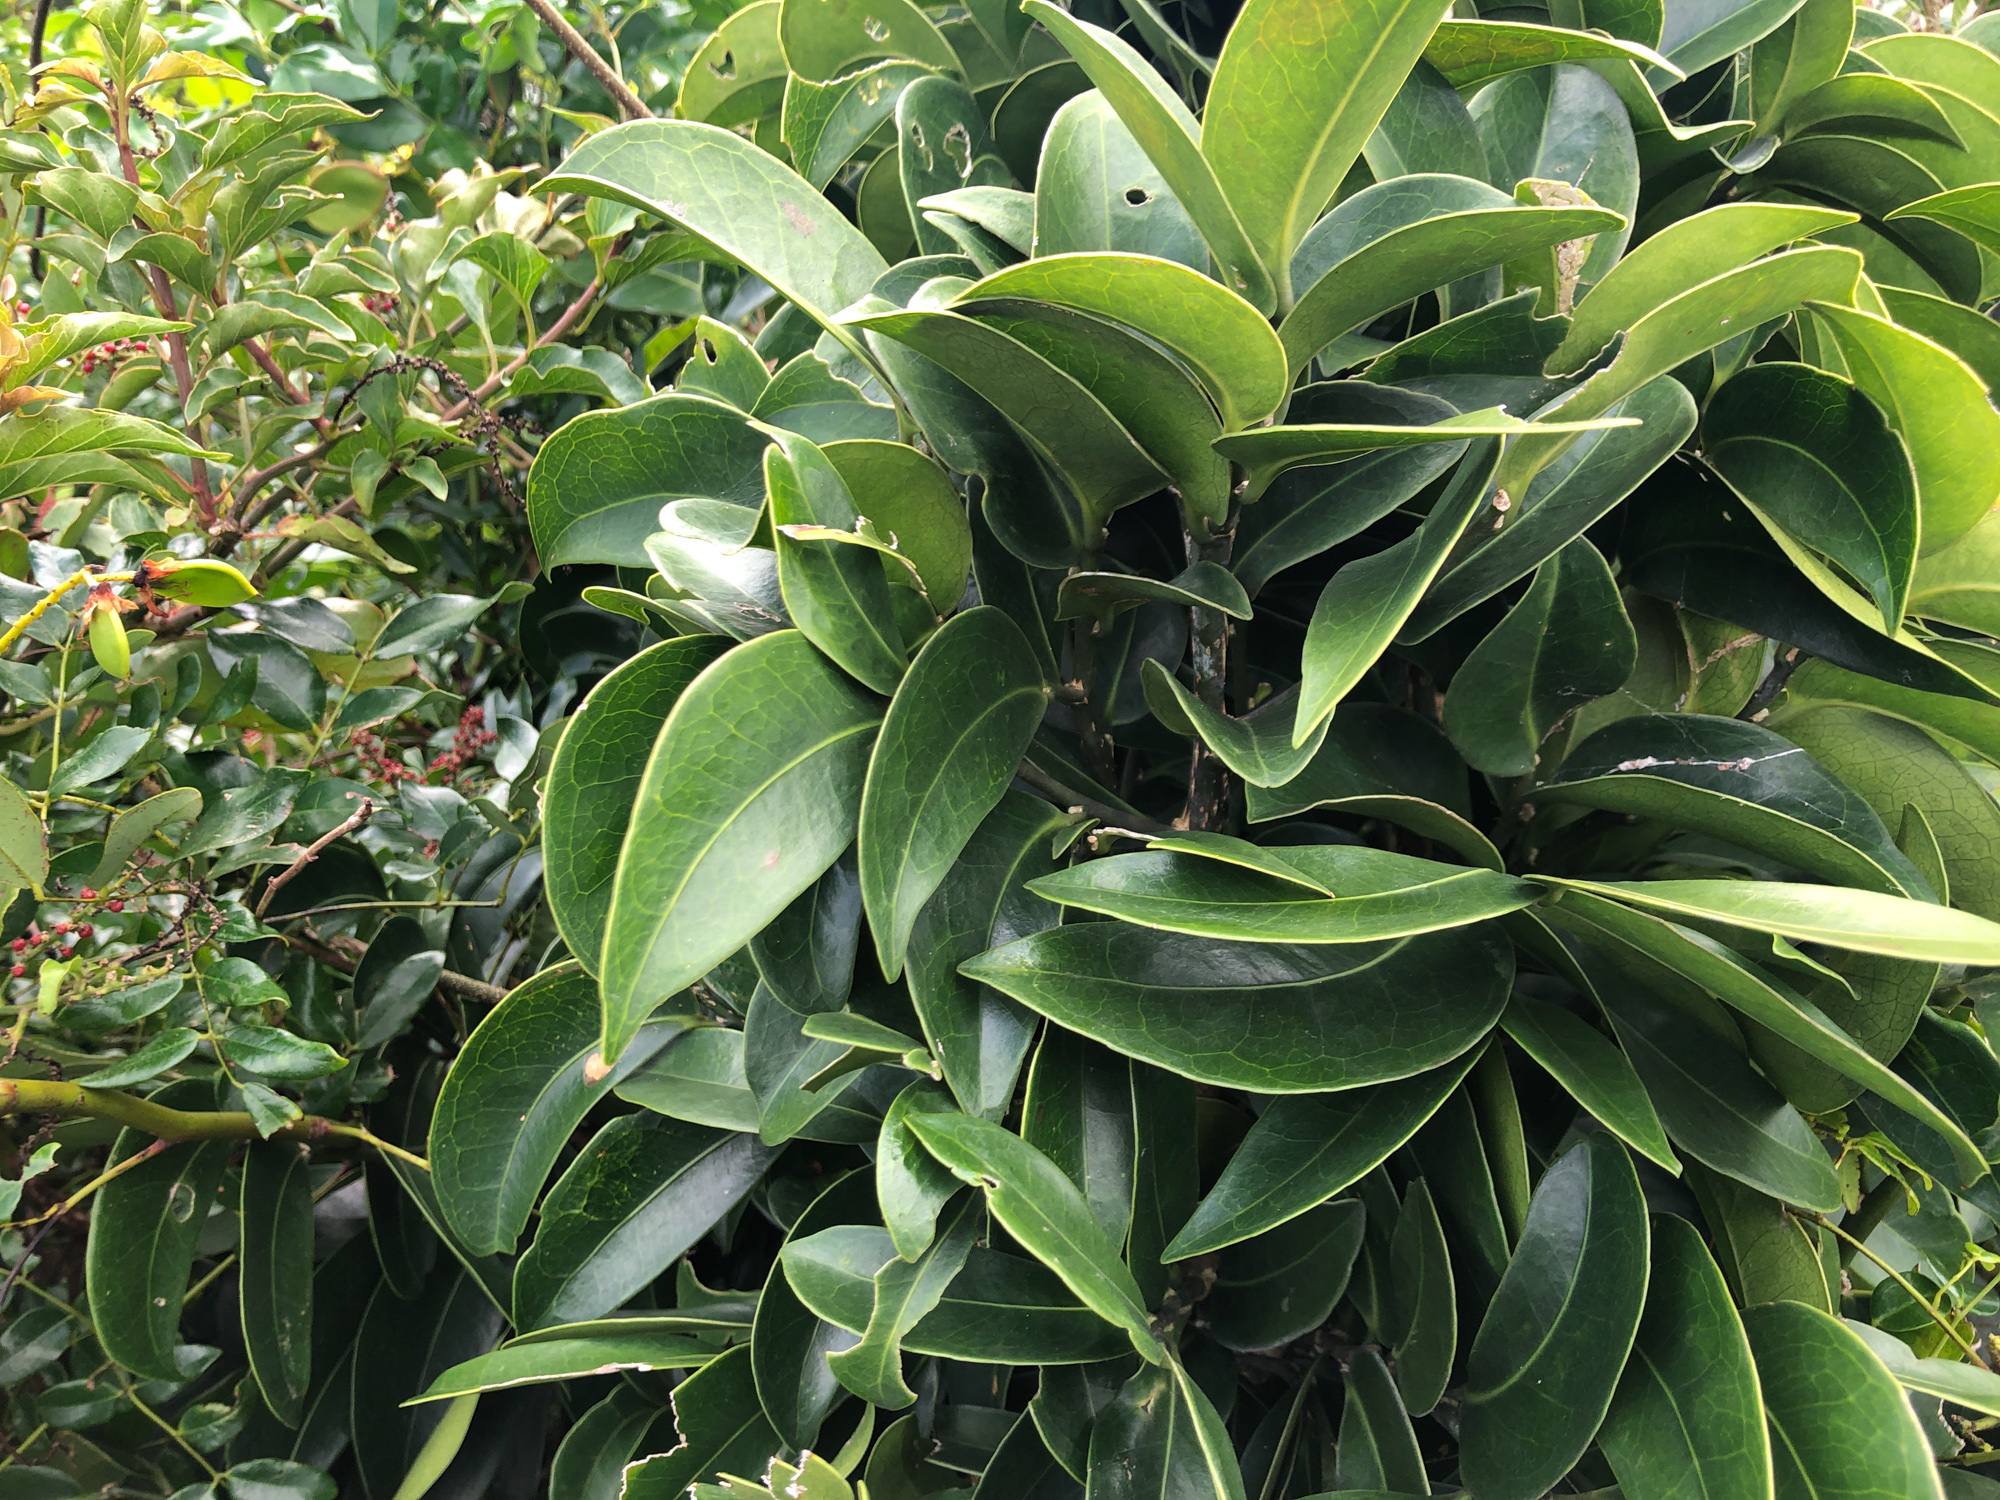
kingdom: Plantae
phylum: Tracheophyta
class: Magnoliopsida
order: Malpighiales
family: Putranjivaceae
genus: Drypetes
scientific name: Drypetes littoralis
